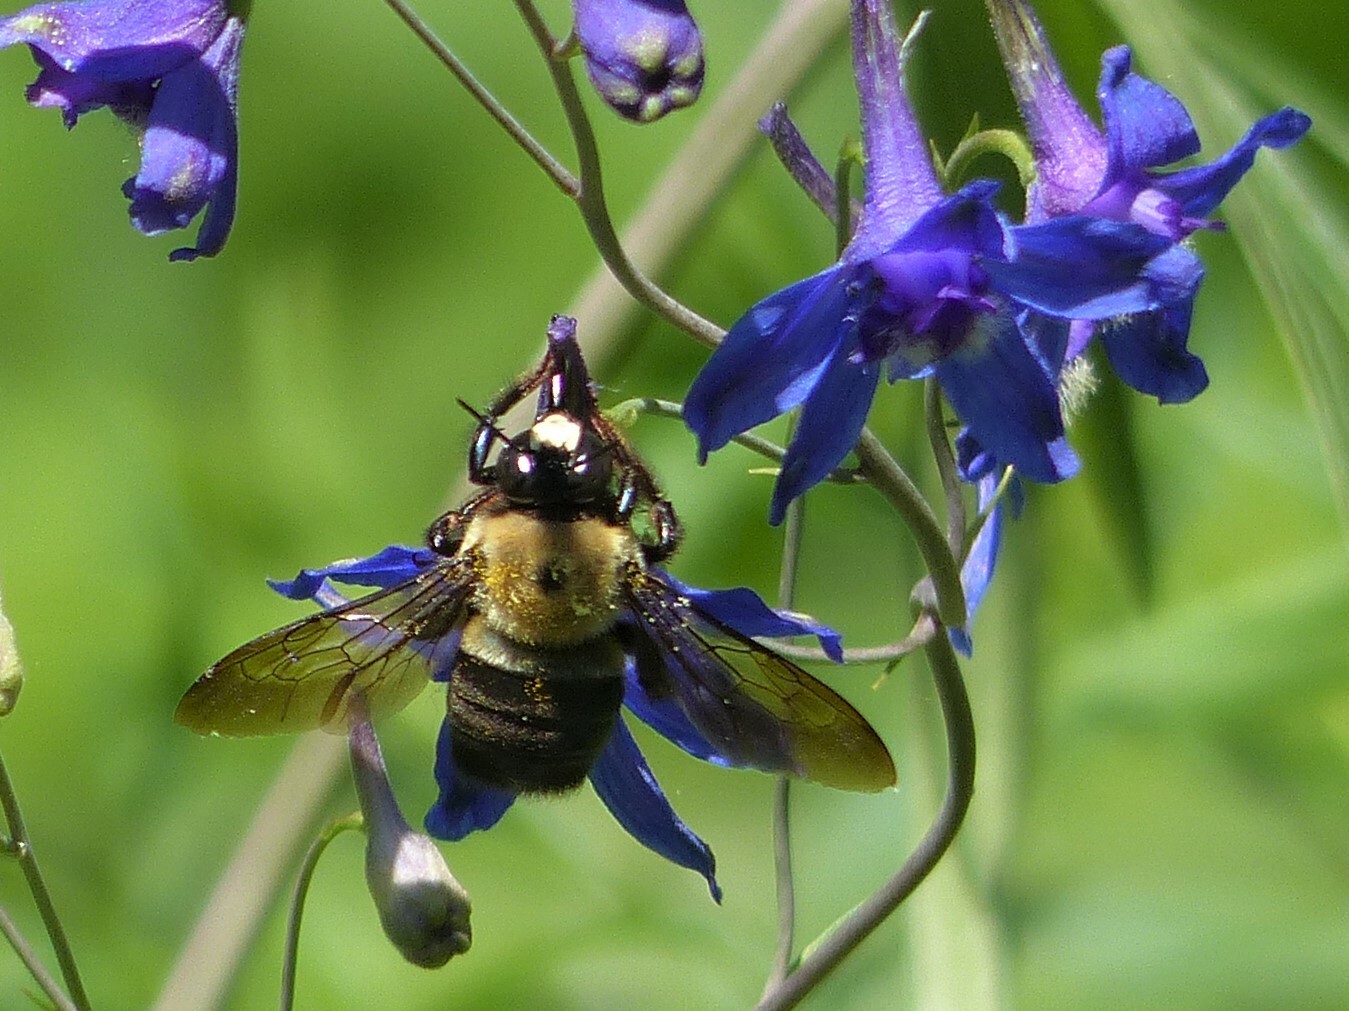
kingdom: Animalia
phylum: Arthropoda
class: Insecta
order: Hymenoptera
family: Apidae
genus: Xylocopa
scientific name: Xylocopa virginica
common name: Carpenter bee
